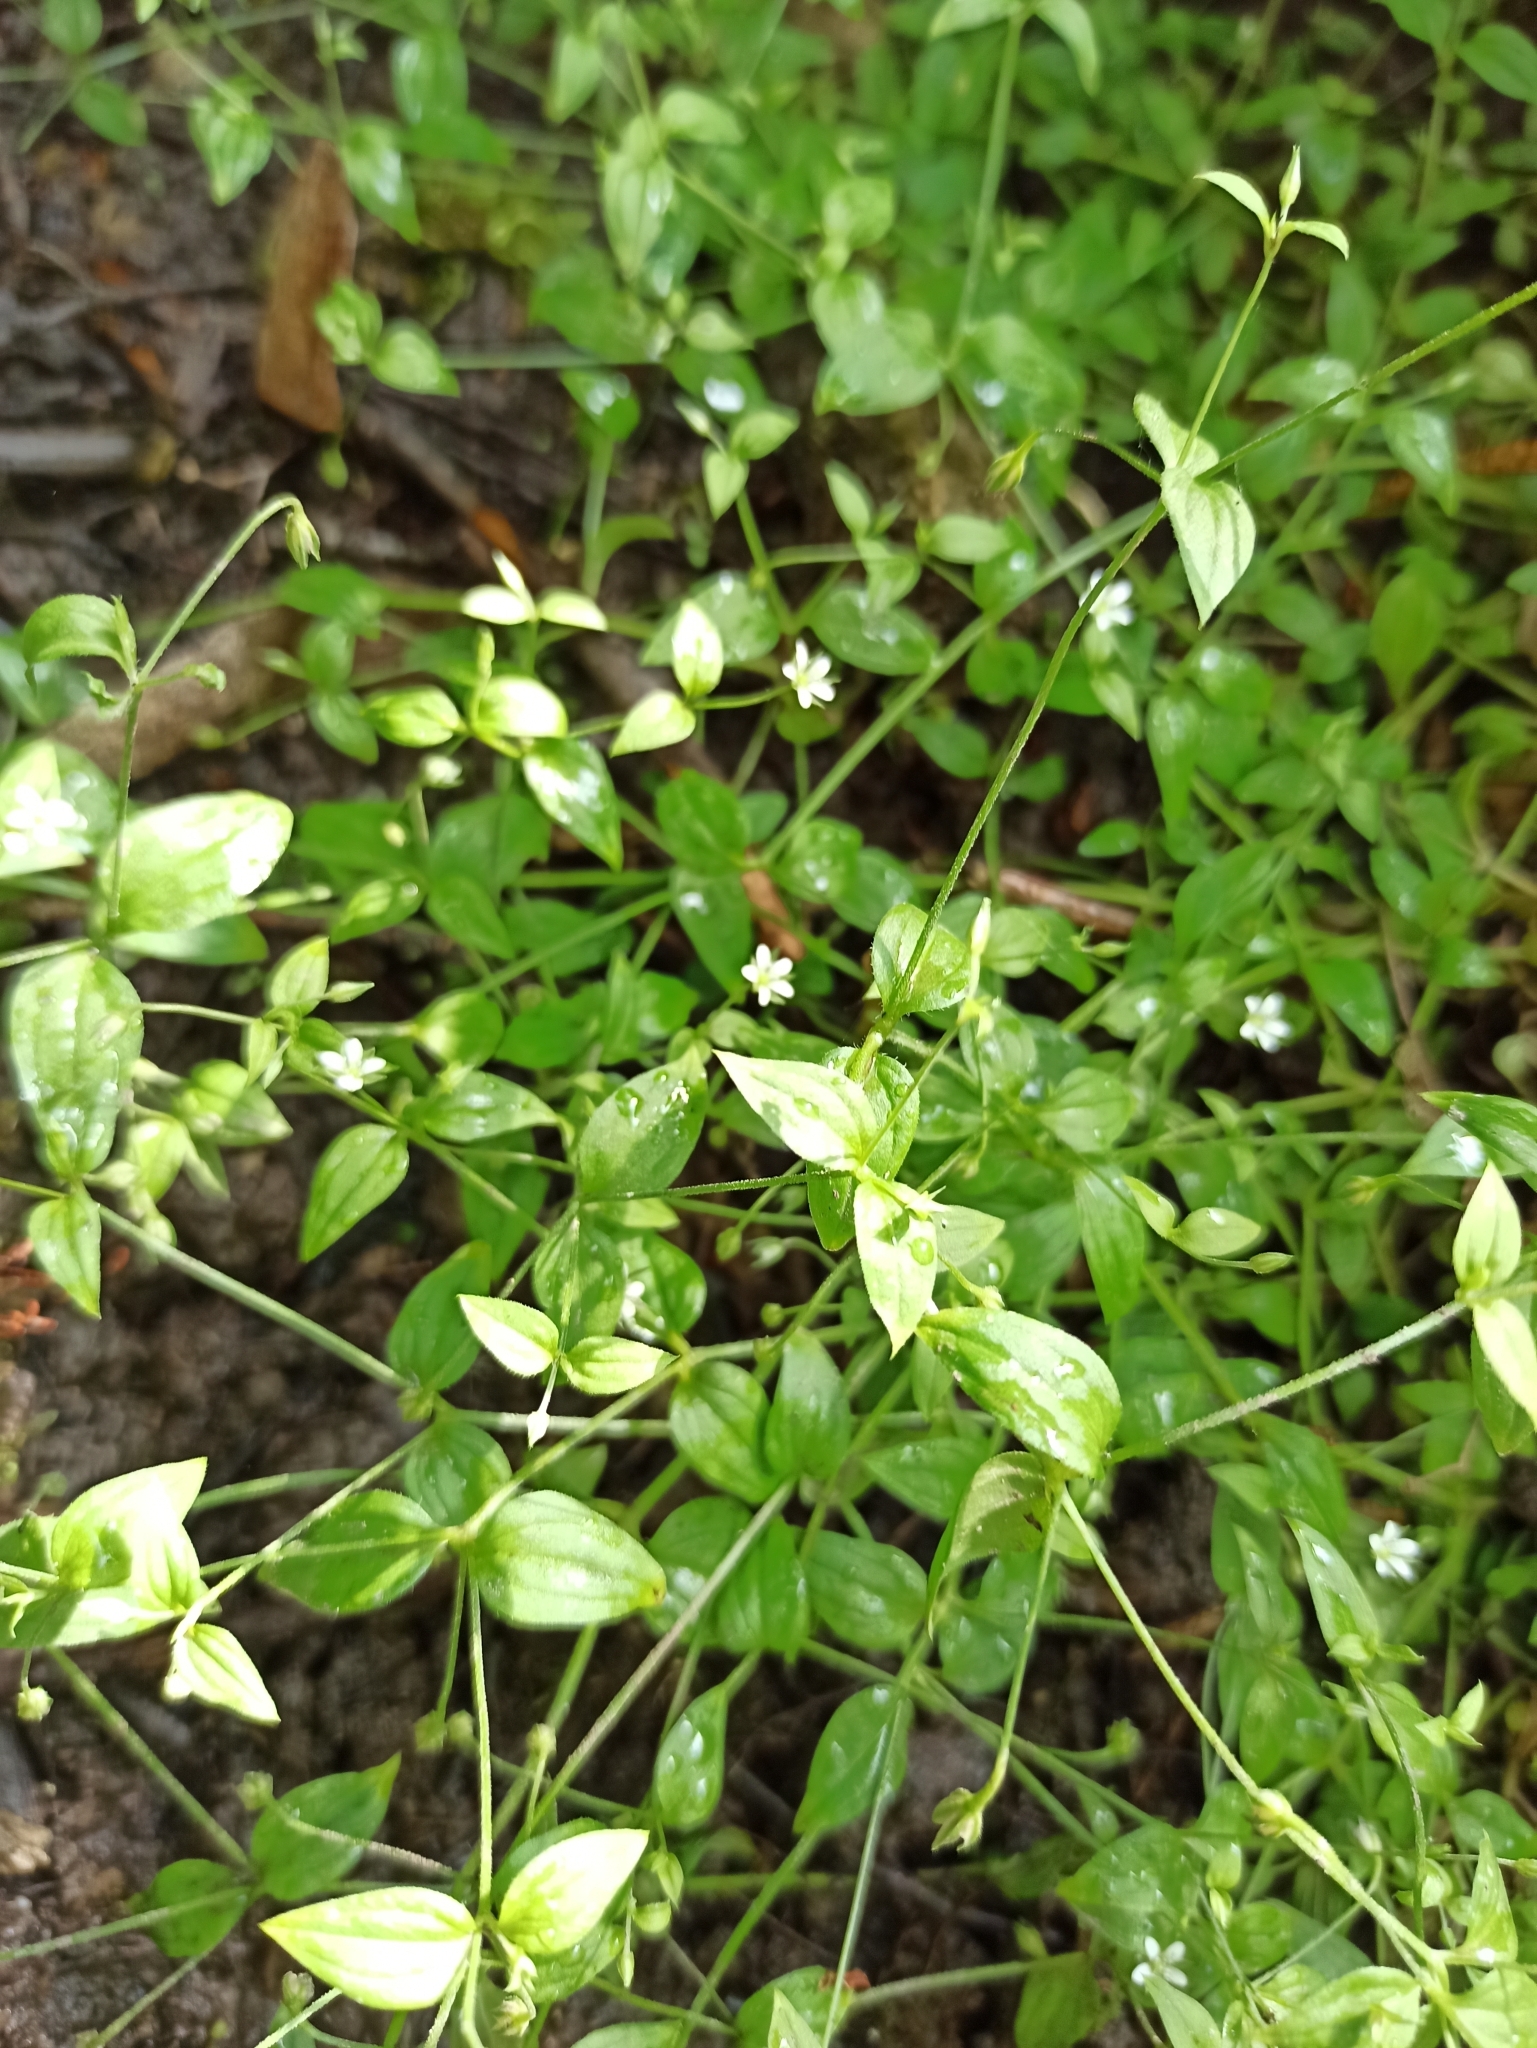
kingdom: Plantae
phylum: Tracheophyta
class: Magnoliopsida
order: Caryophyllales
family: Caryophyllaceae
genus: Moehringia
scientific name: Moehringia trinervia
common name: Three-nerved sandwort
